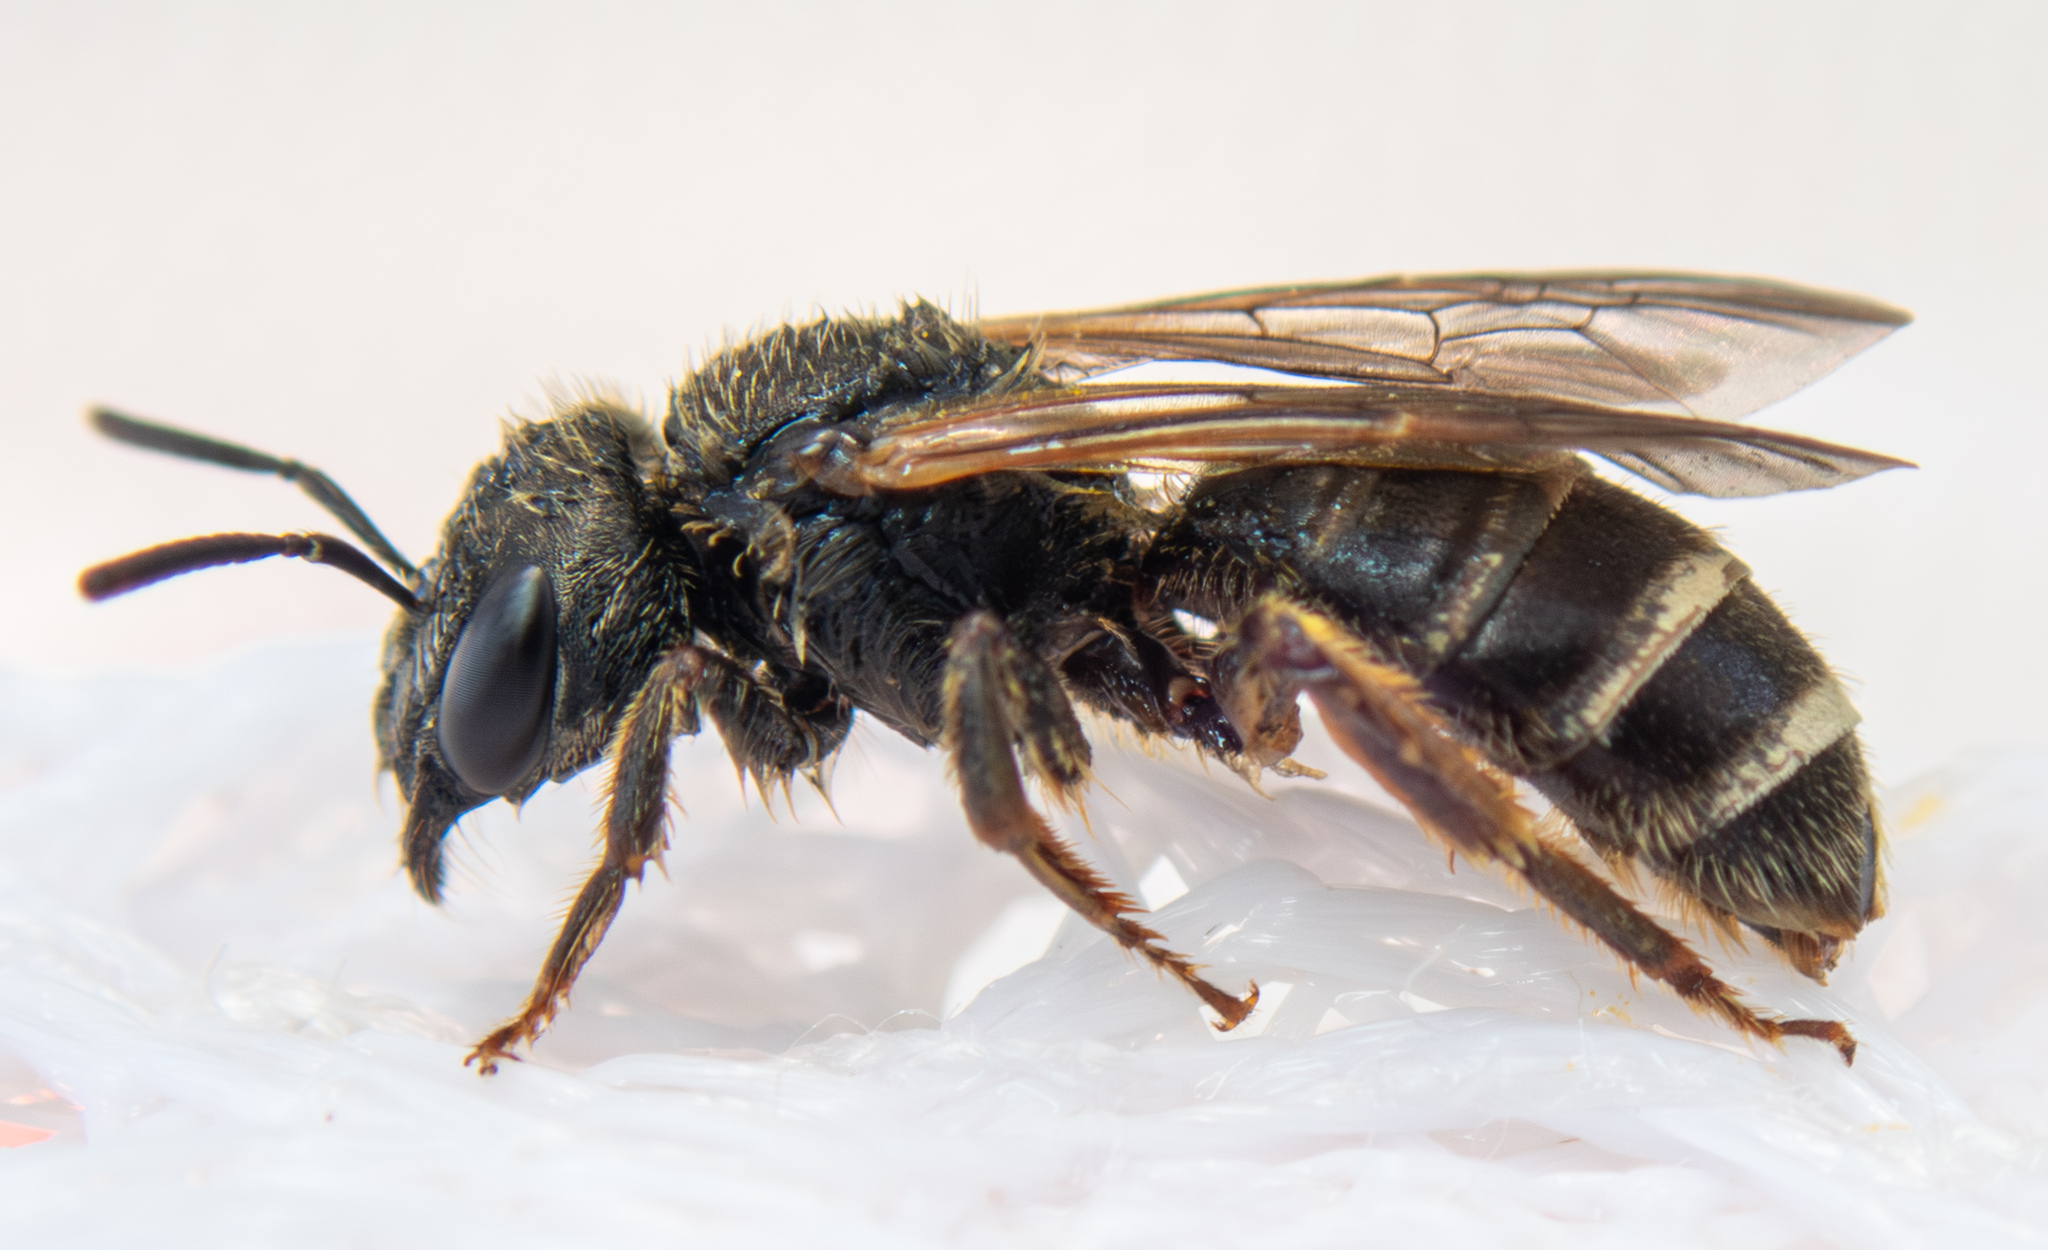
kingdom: Animalia
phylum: Arthropoda
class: Insecta
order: Hymenoptera
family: Halictidae
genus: Halictus
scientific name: Halictus ligatus
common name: Ligated furrow bee
